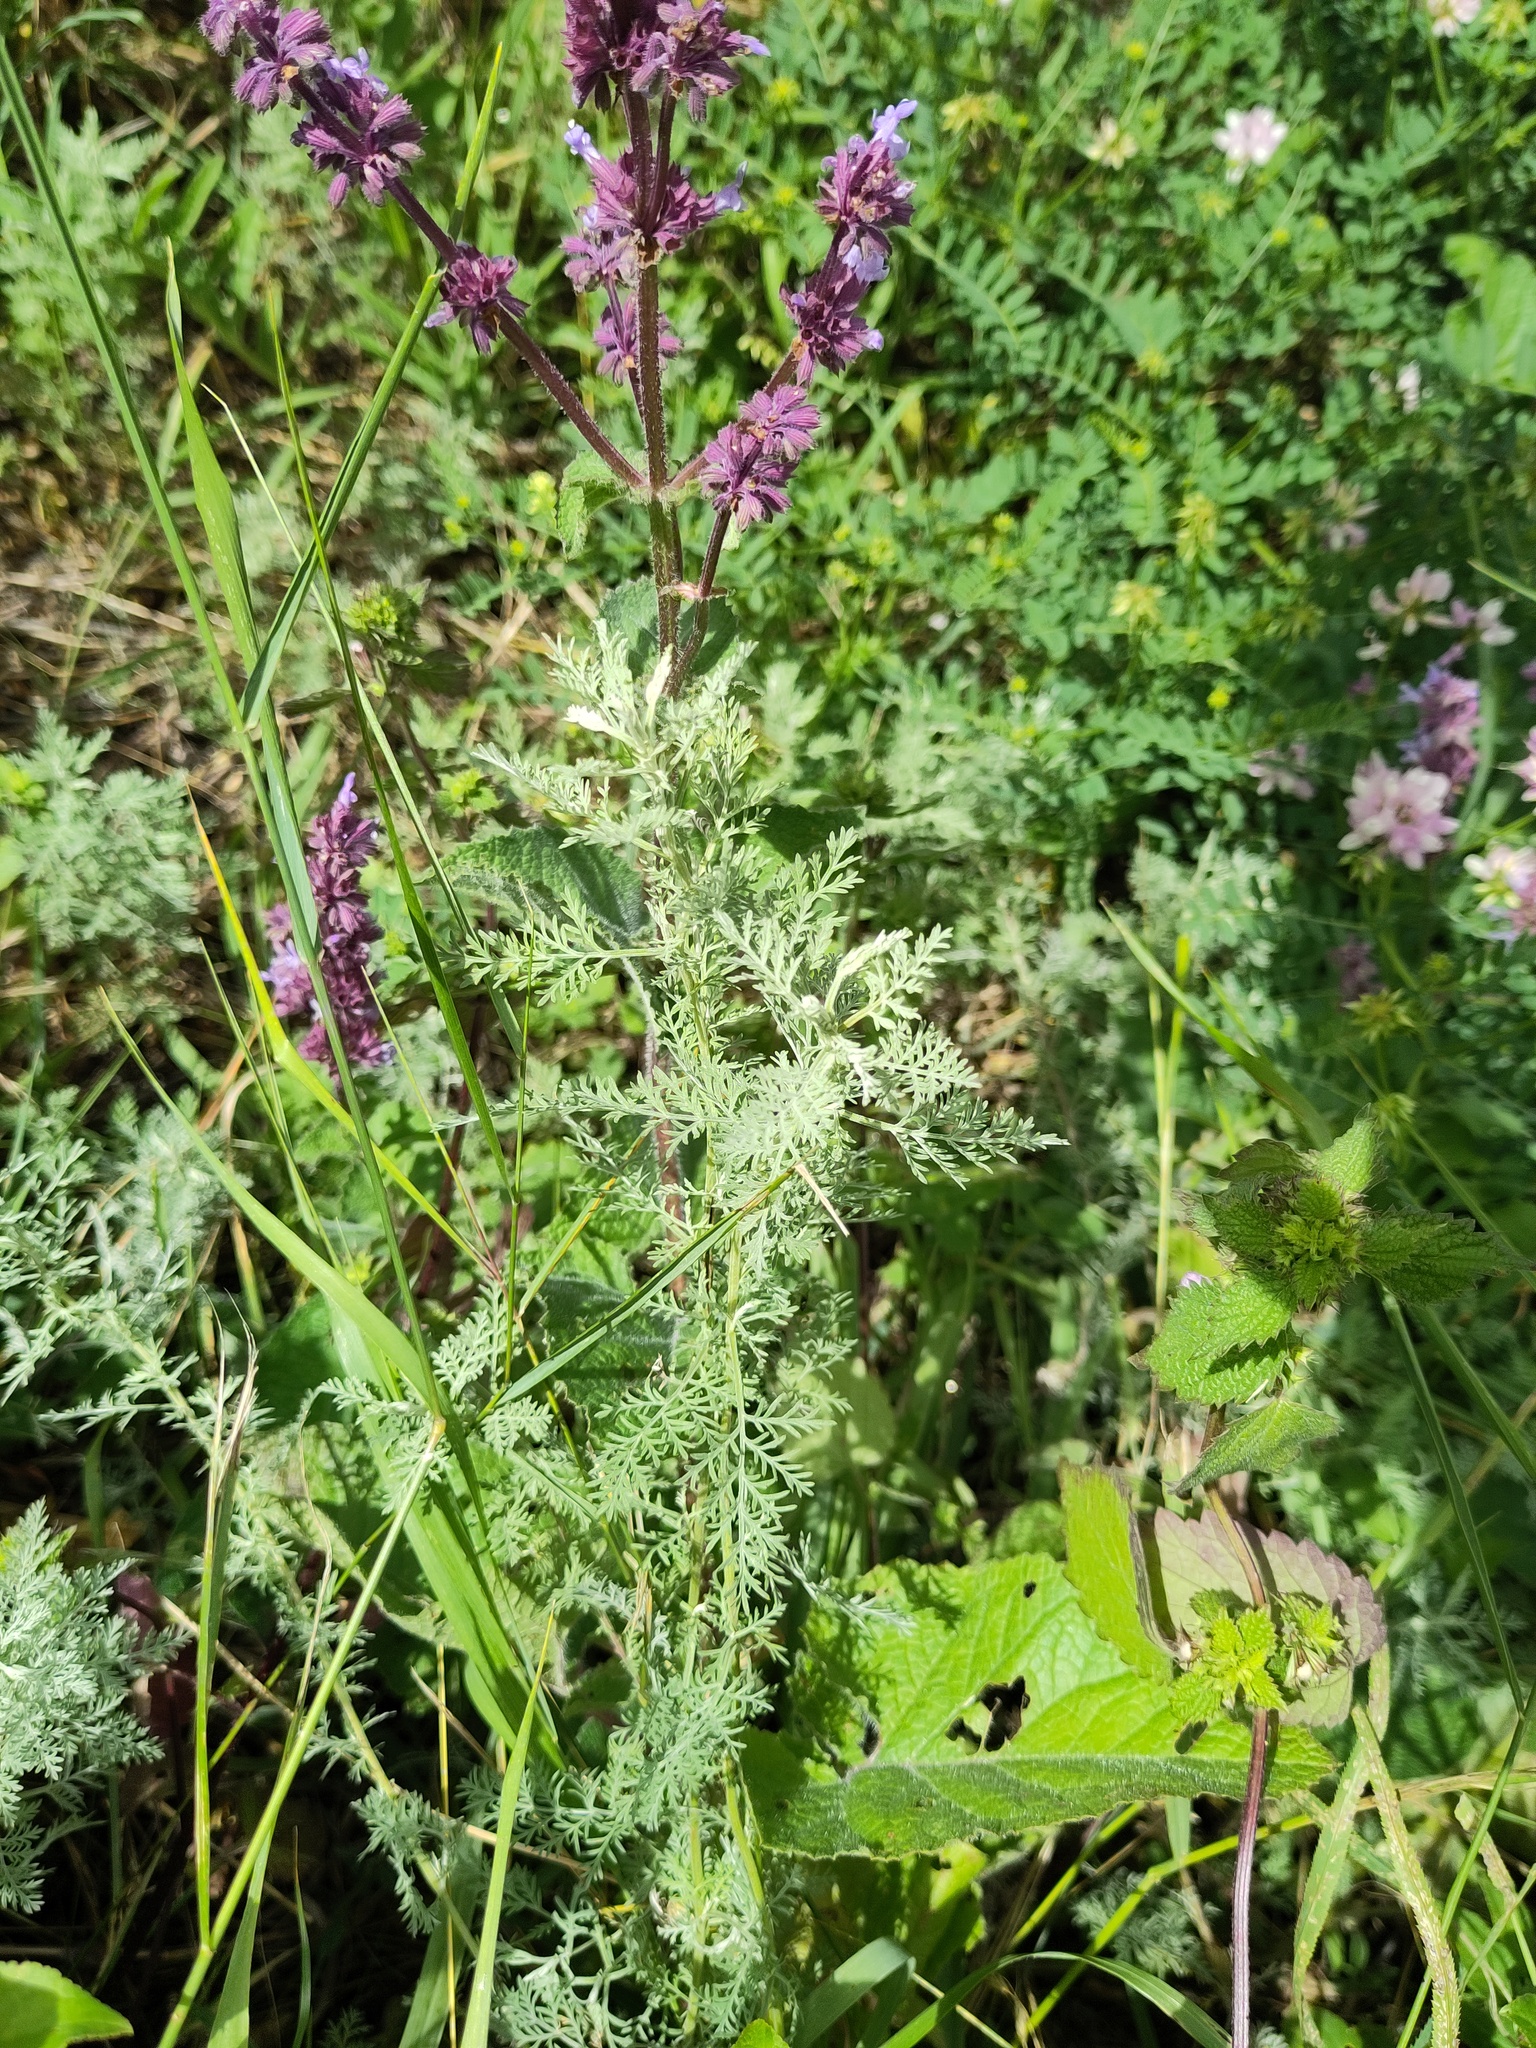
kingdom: Plantae
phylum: Tracheophyta
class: Magnoliopsida
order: Brassicales
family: Brassicaceae
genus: Descurainia
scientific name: Descurainia sophia
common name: Flixweed
